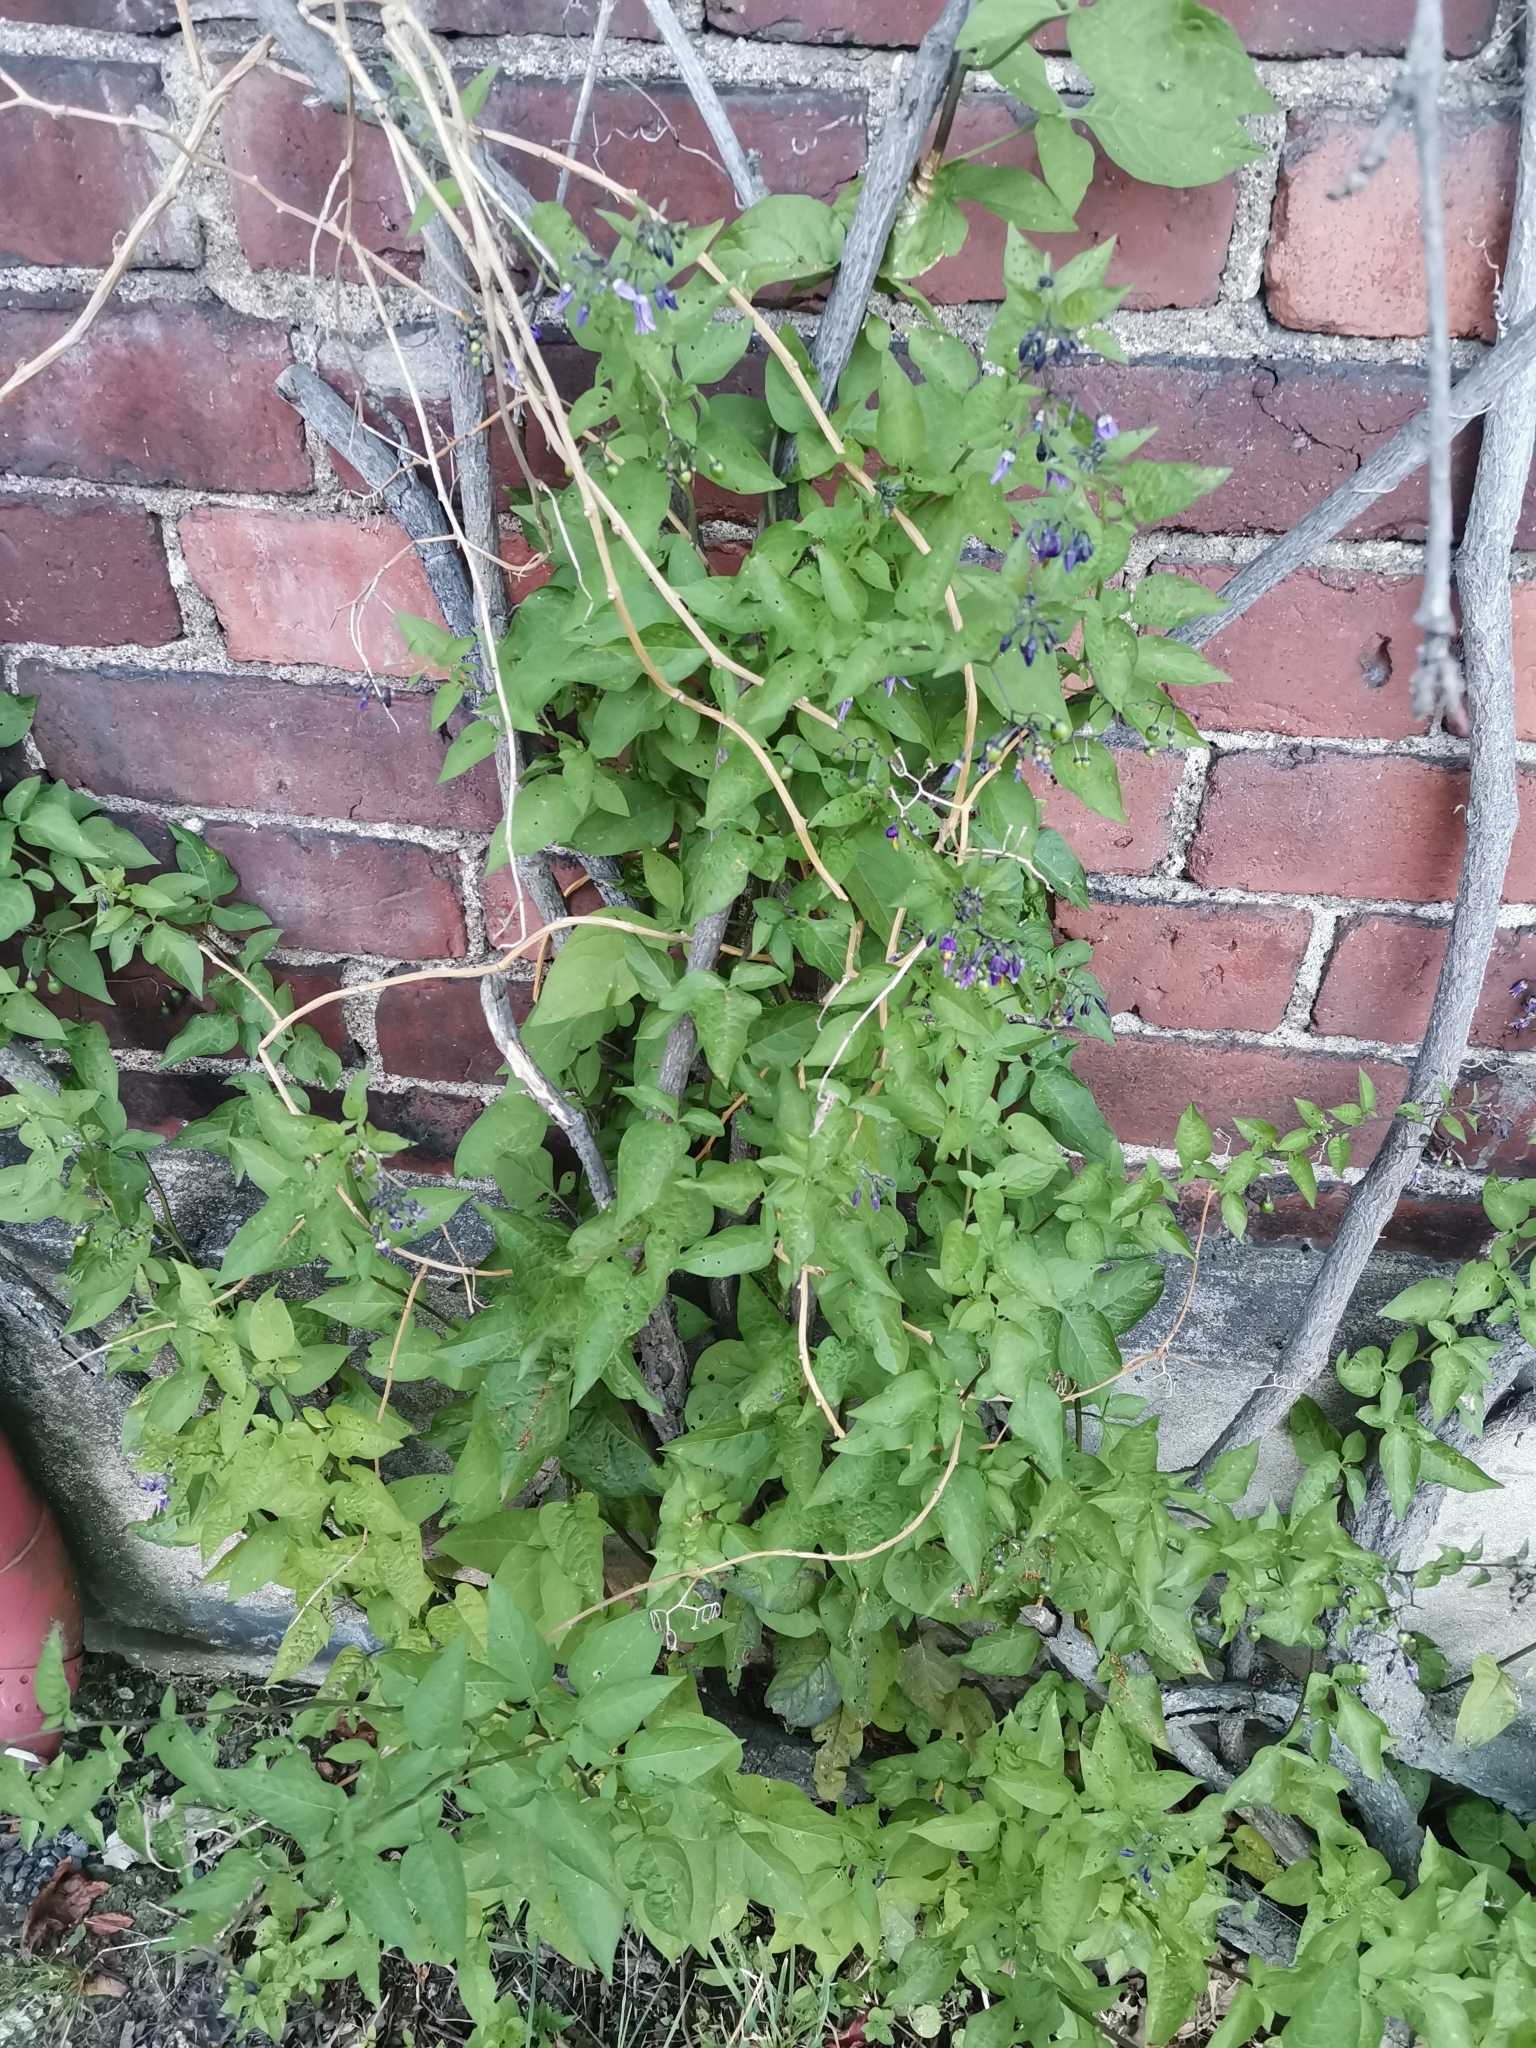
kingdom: Plantae
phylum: Tracheophyta
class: Magnoliopsida
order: Solanales
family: Solanaceae
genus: Solanum
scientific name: Solanum dulcamara
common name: Climbing nightshade
